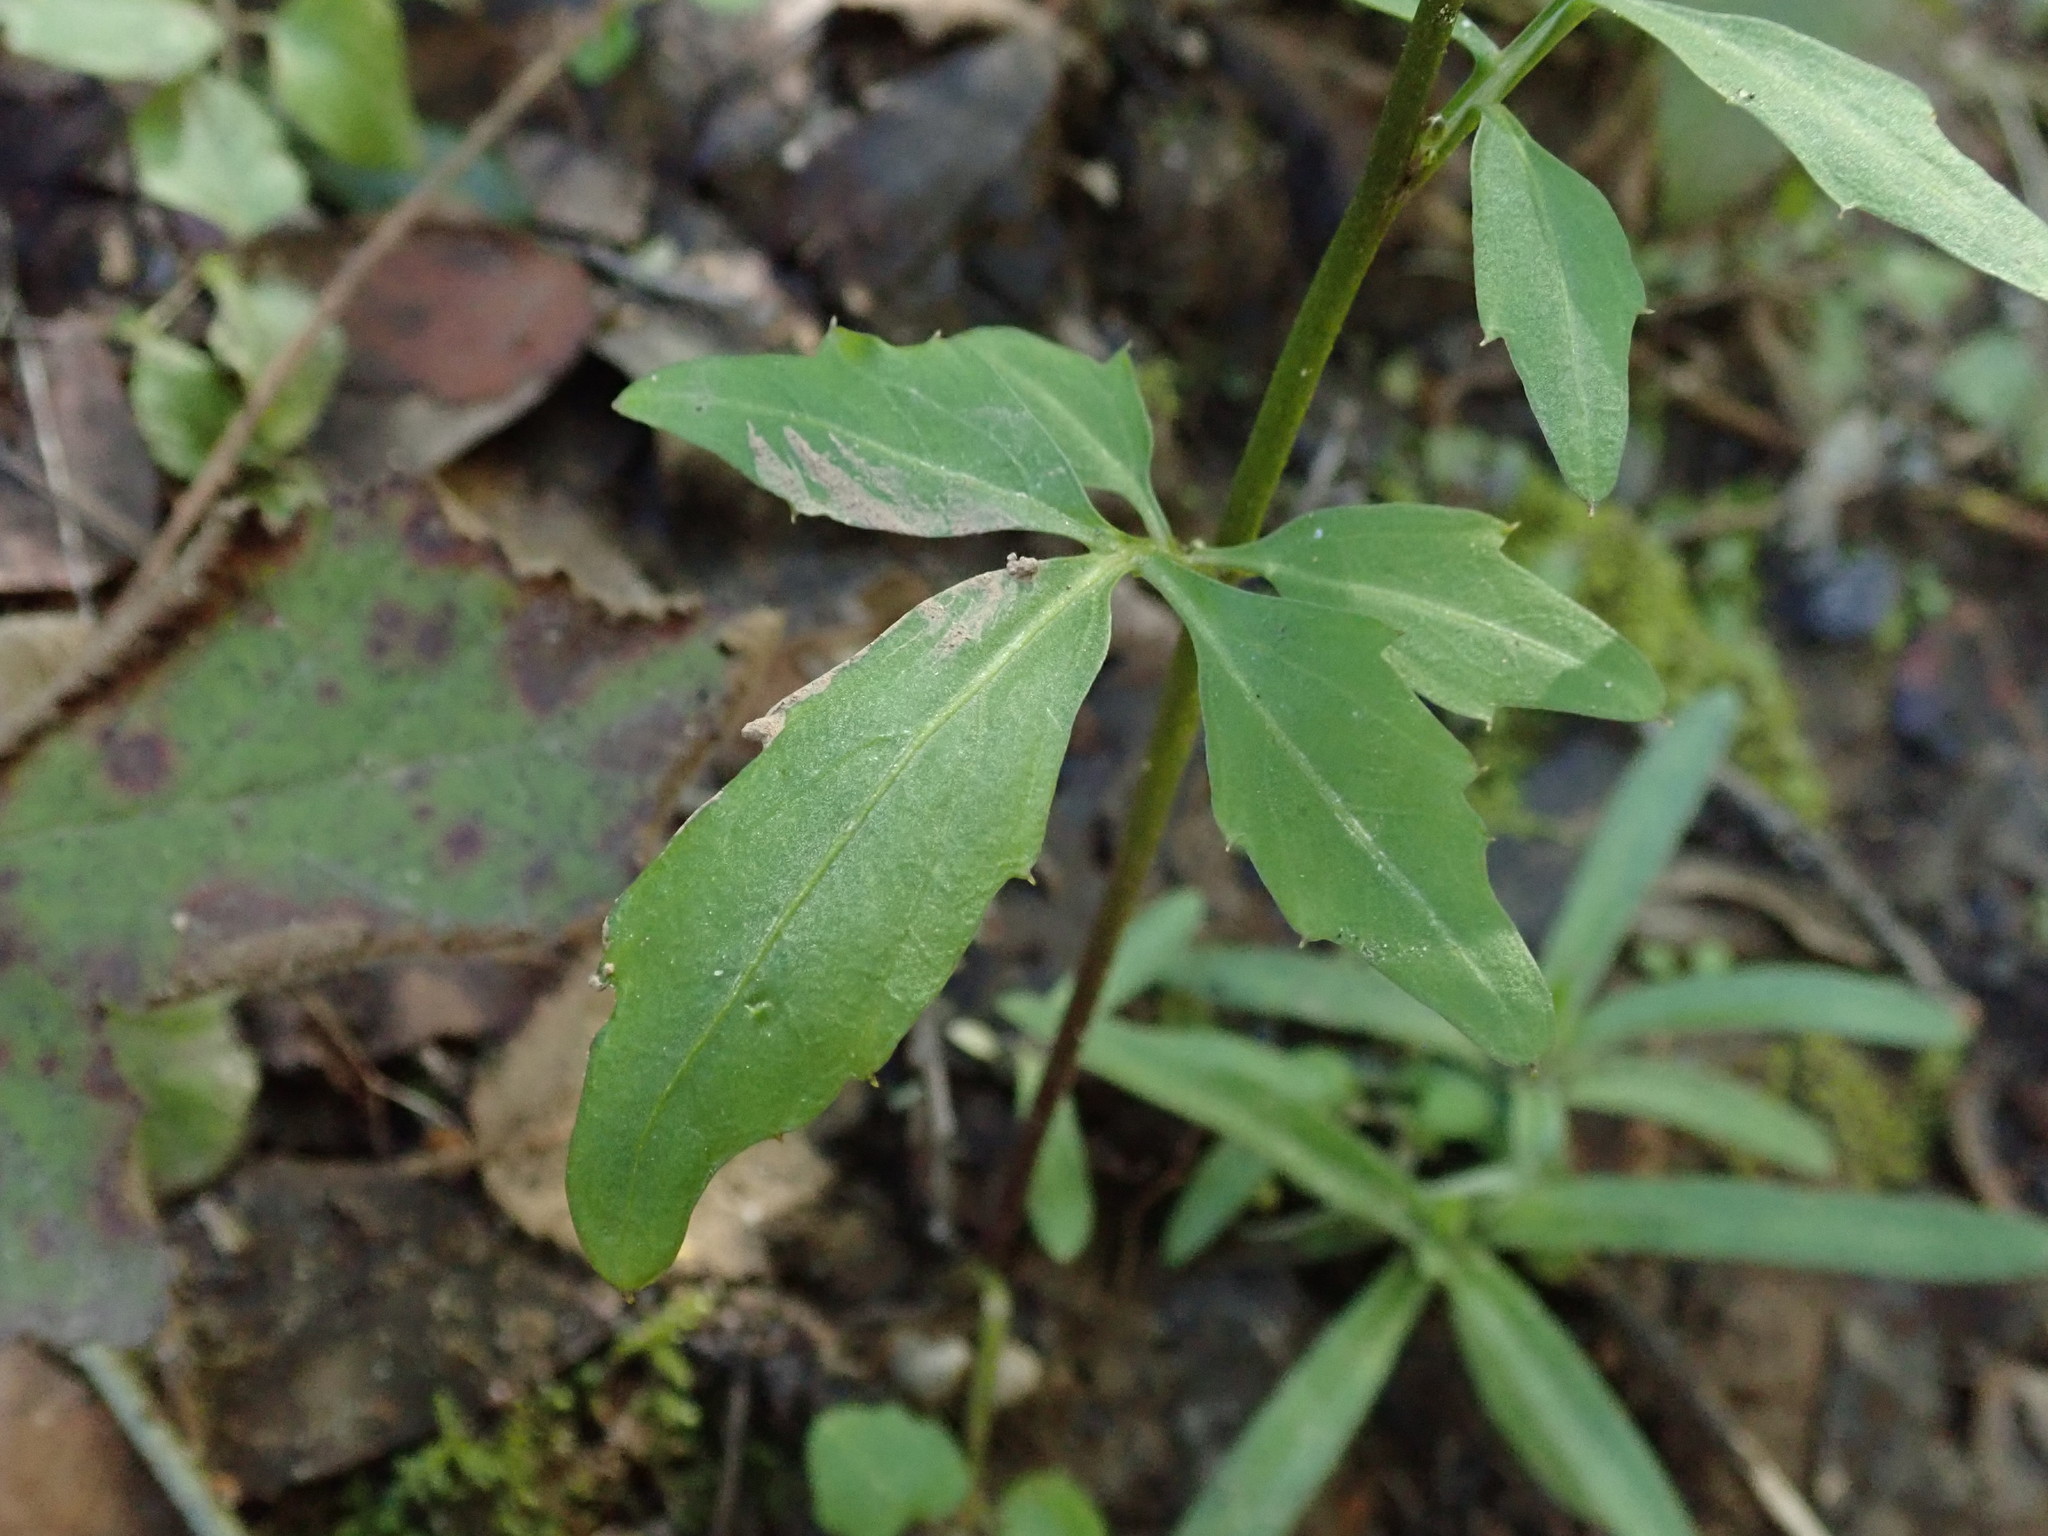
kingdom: Plantae
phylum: Tracheophyta
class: Magnoliopsida
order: Brassicales
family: Brassicaceae
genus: Cardamine
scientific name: Cardamine californica
